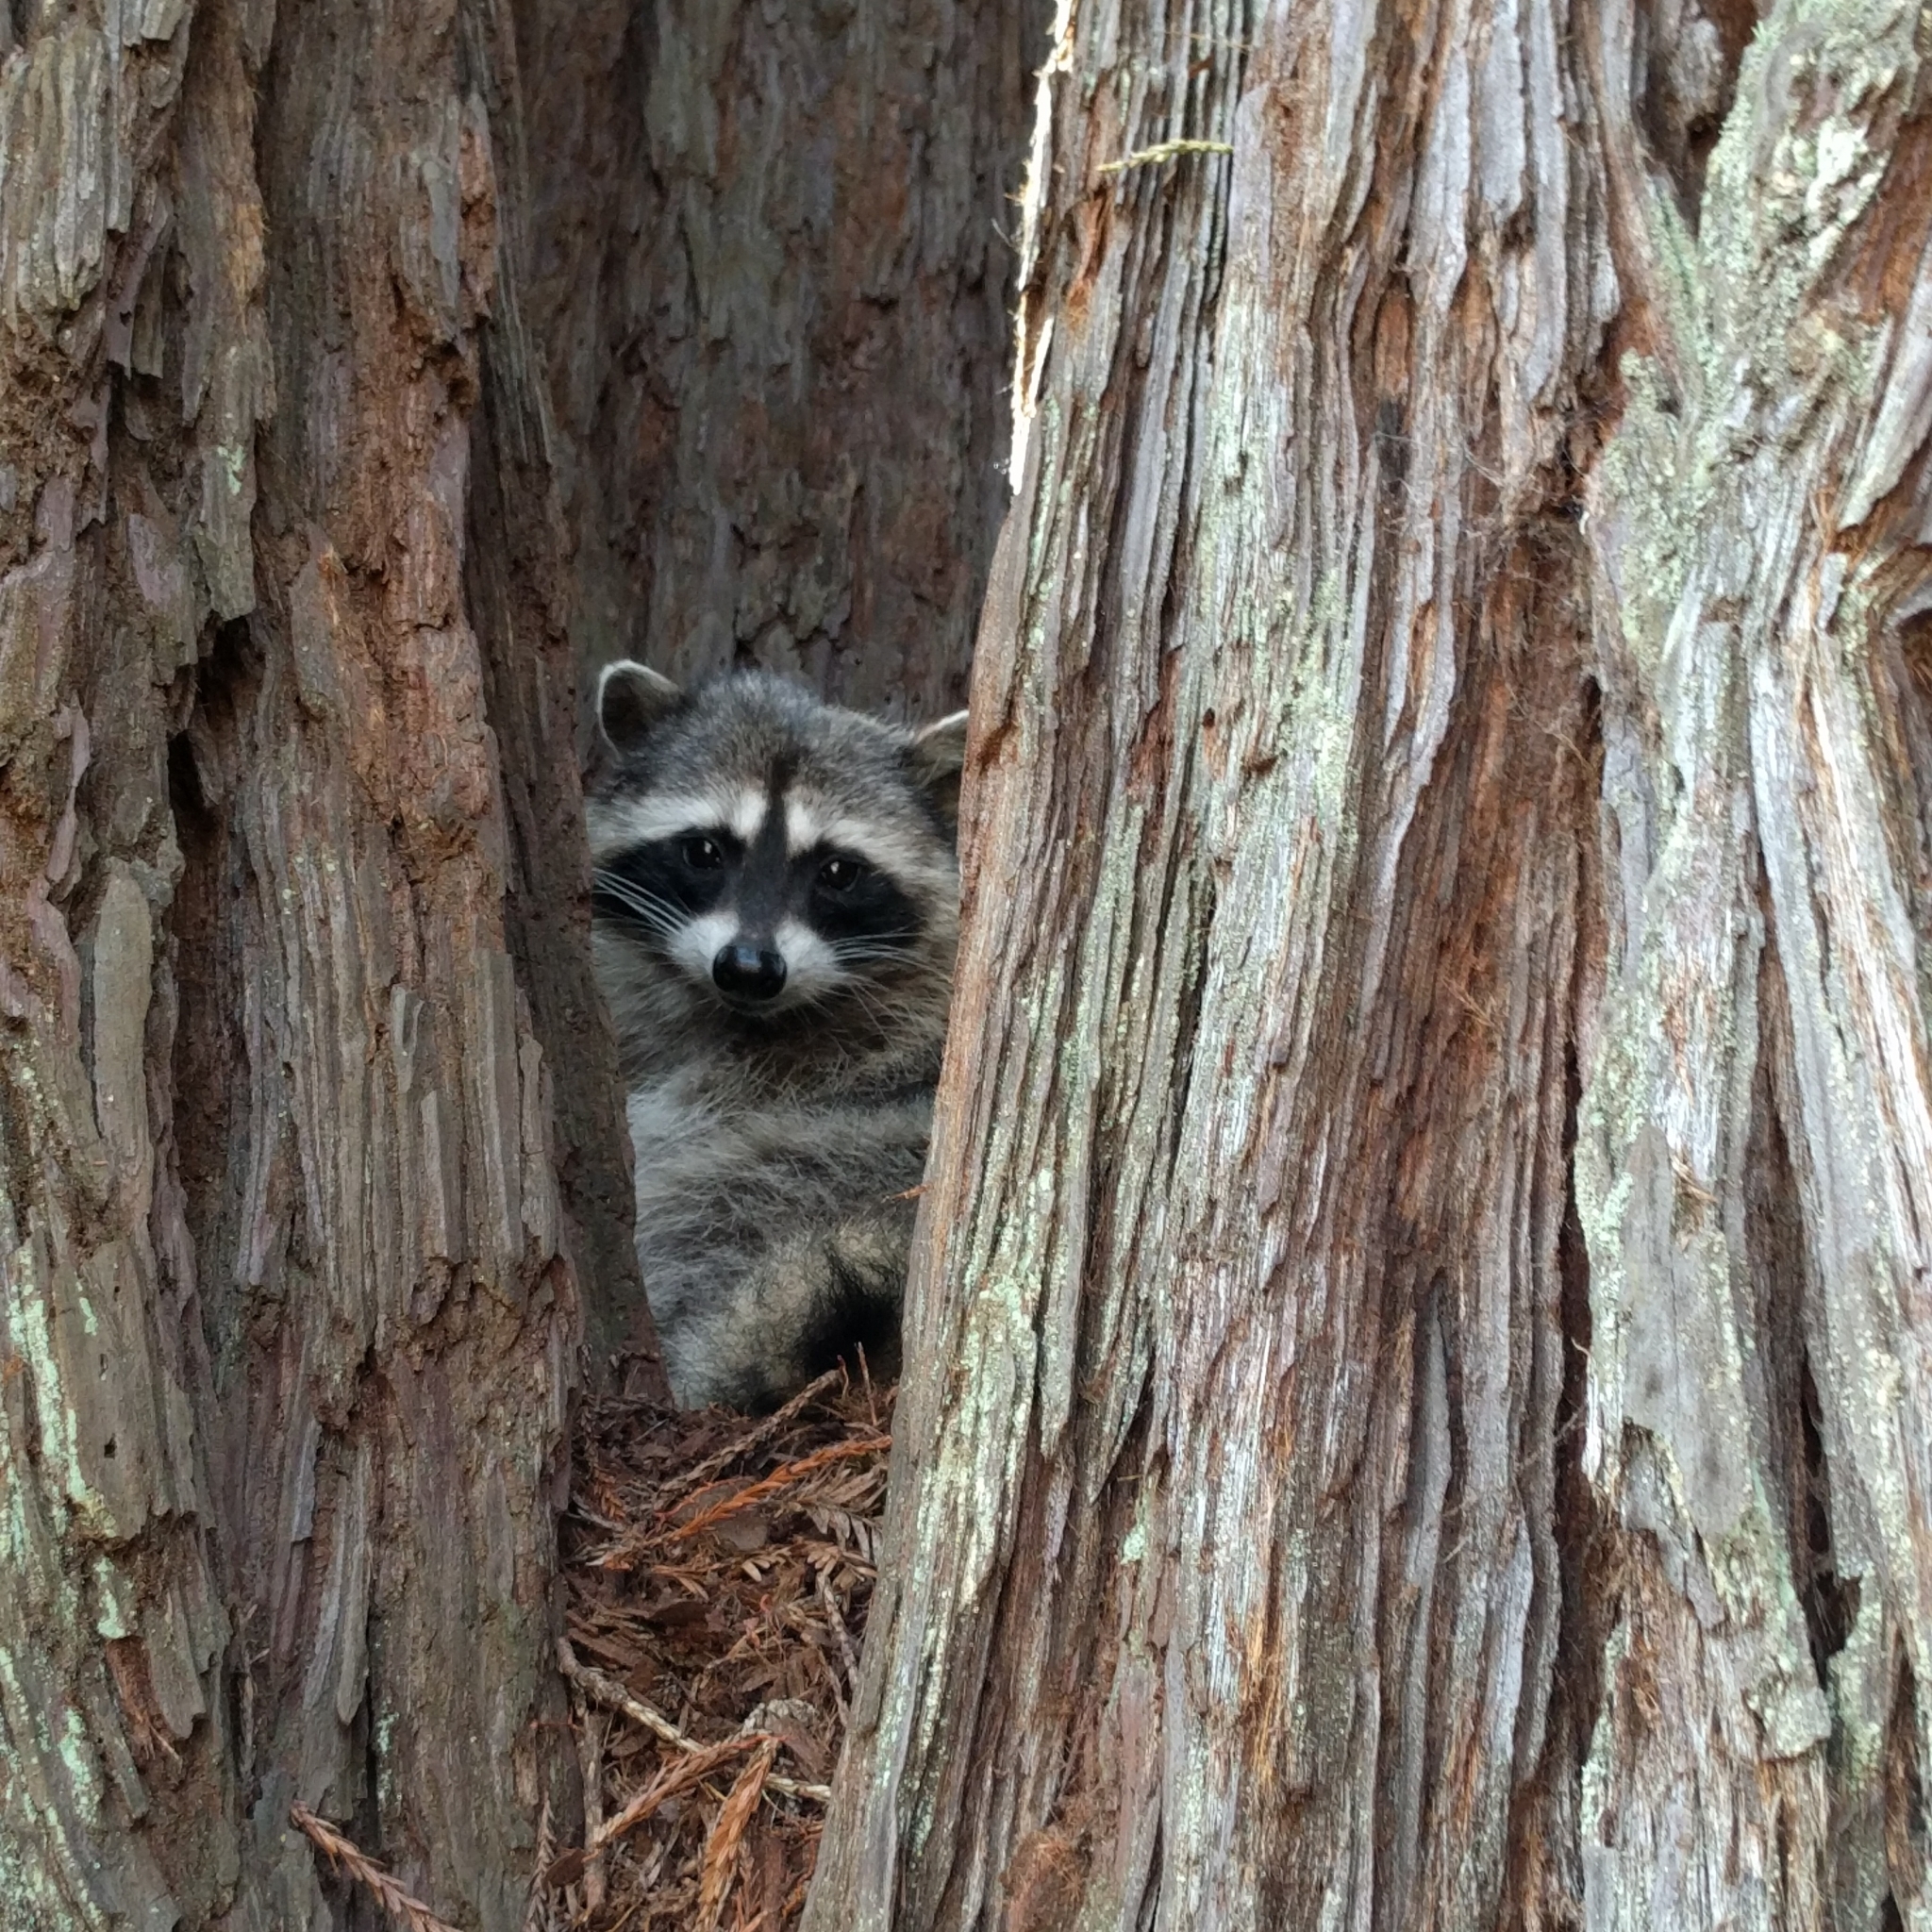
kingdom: Animalia
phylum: Chordata
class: Mammalia
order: Carnivora
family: Procyonidae
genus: Procyon
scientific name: Procyon lotor
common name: Raccoon
